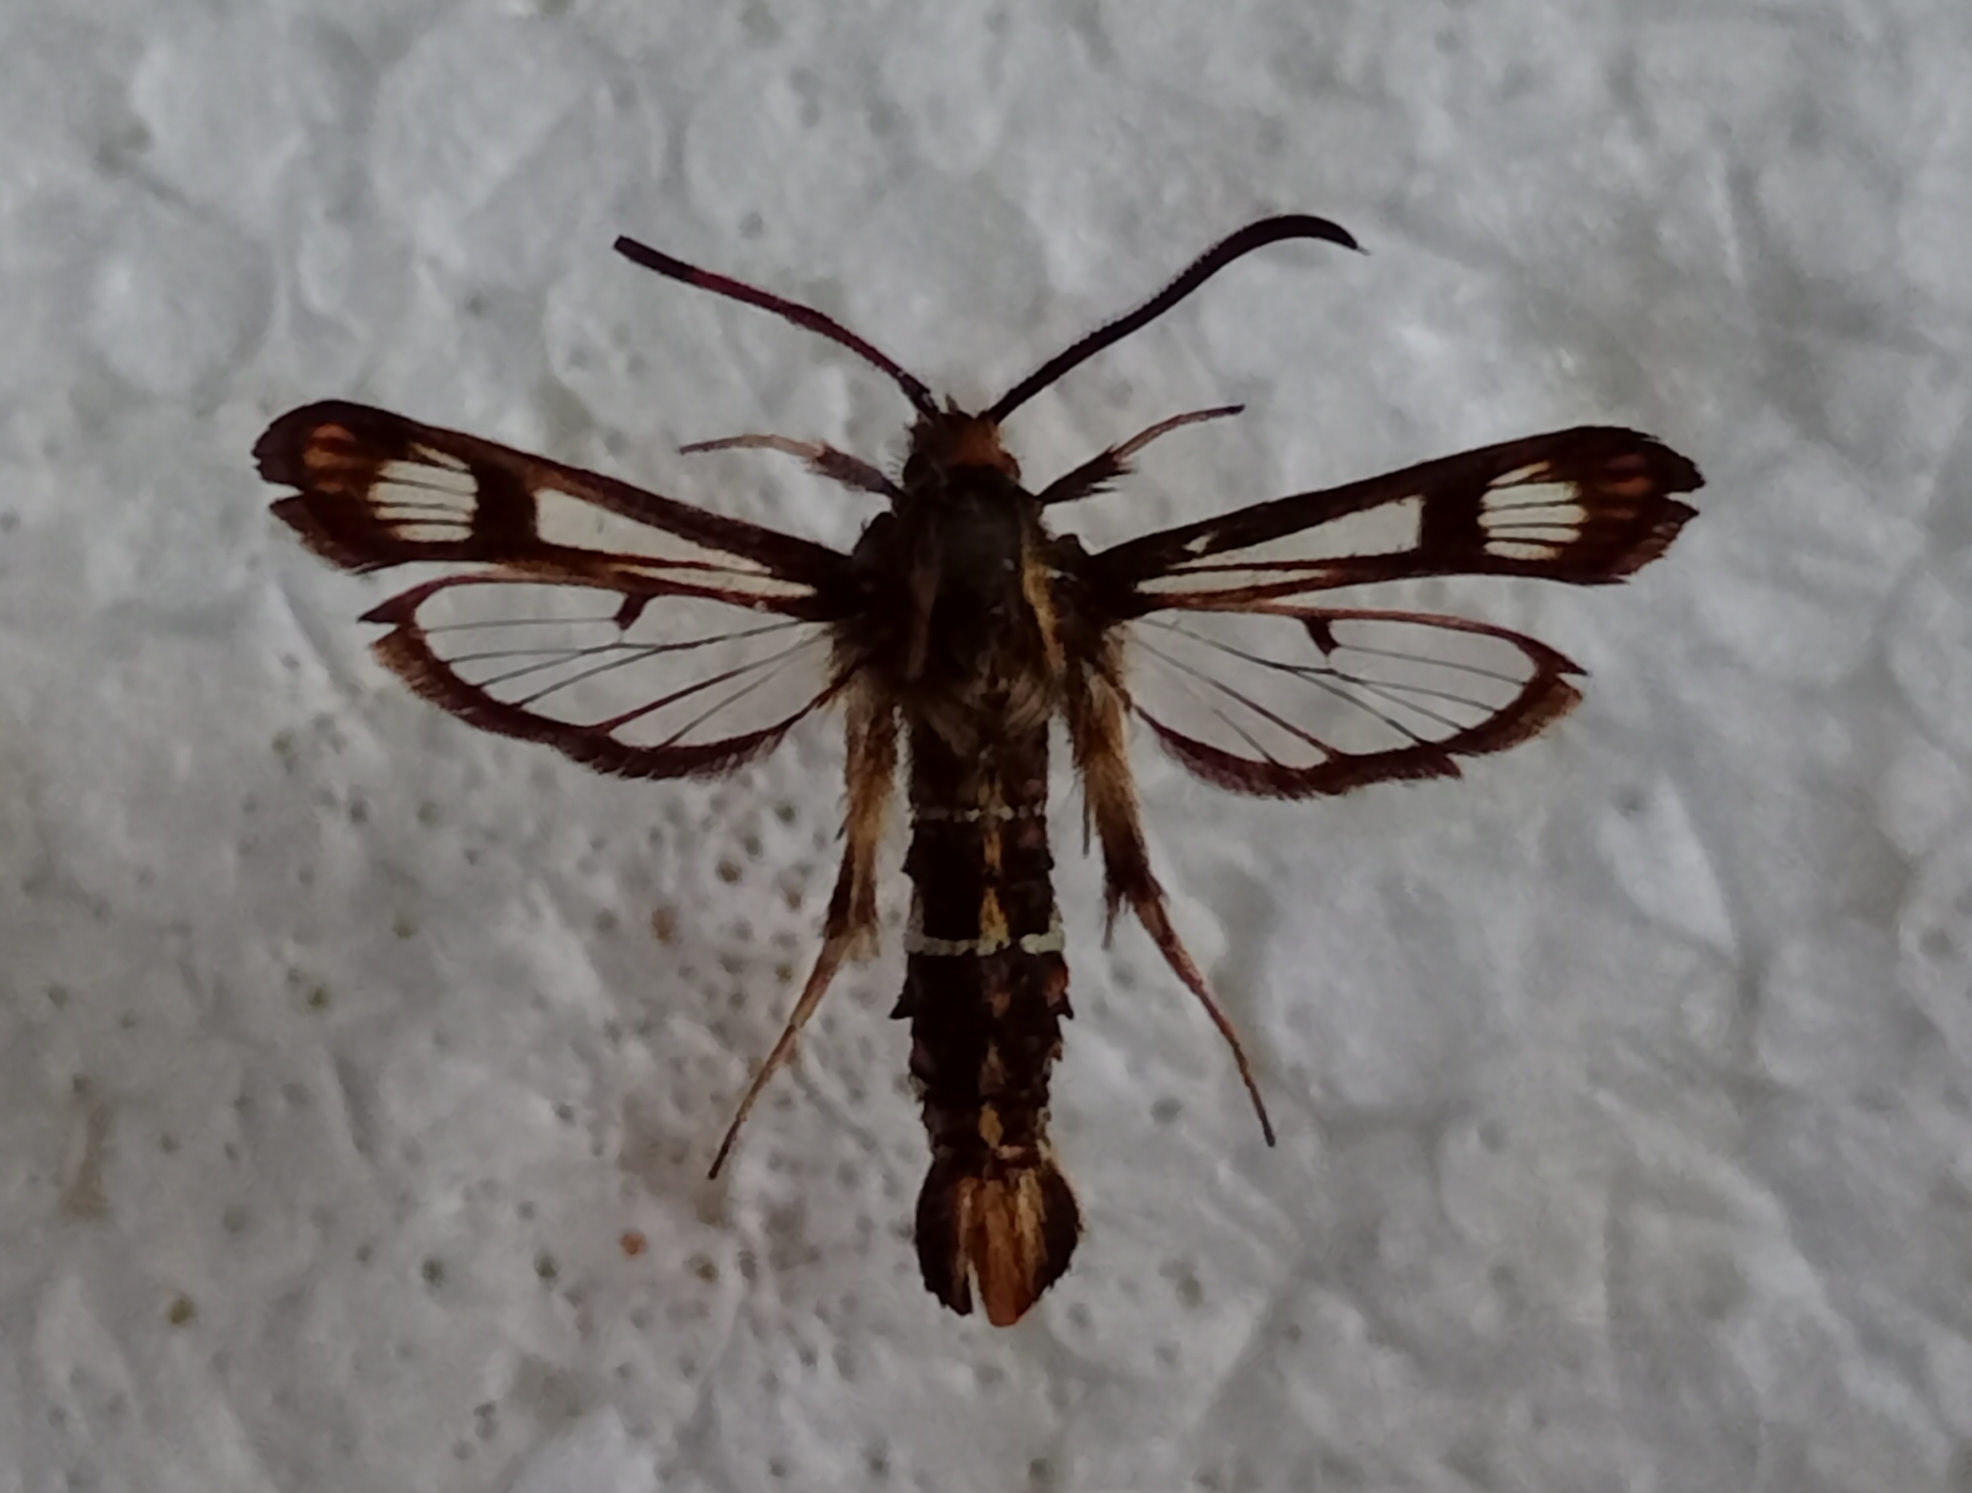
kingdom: Animalia
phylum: Arthropoda
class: Insecta
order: Lepidoptera
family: Sesiidae
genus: Chamaesphecia
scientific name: Chamaesphecia euceraeformis
